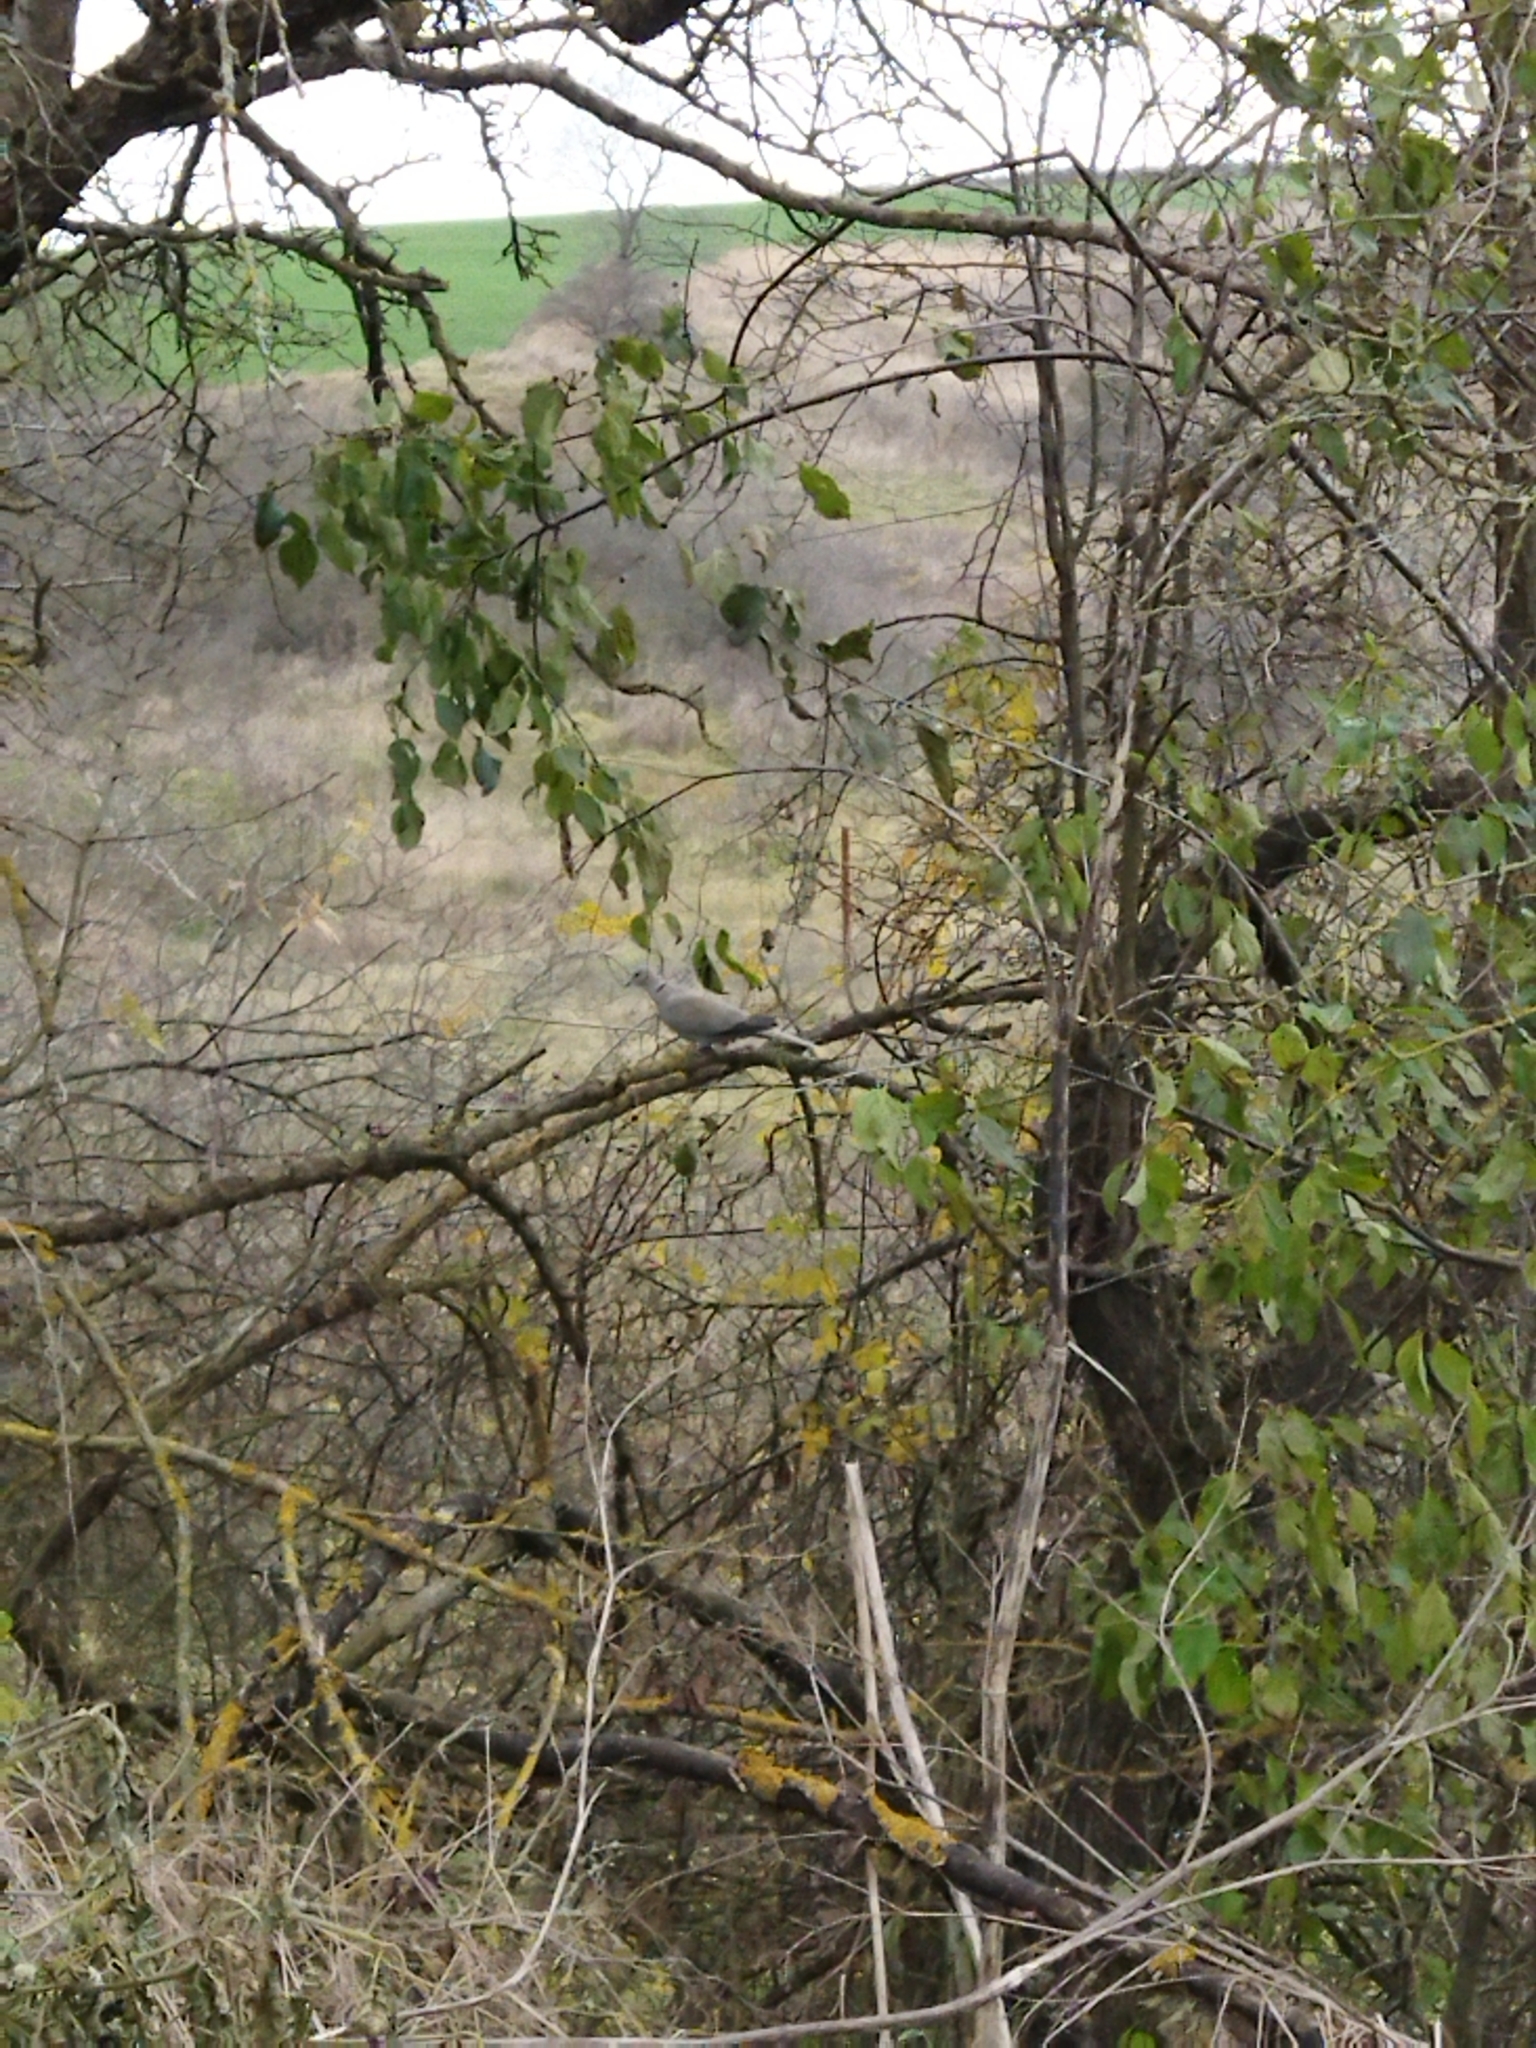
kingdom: Animalia
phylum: Chordata
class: Aves
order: Columbiformes
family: Columbidae
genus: Streptopelia
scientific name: Streptopelia decaocto
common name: Eurasian collared dove
